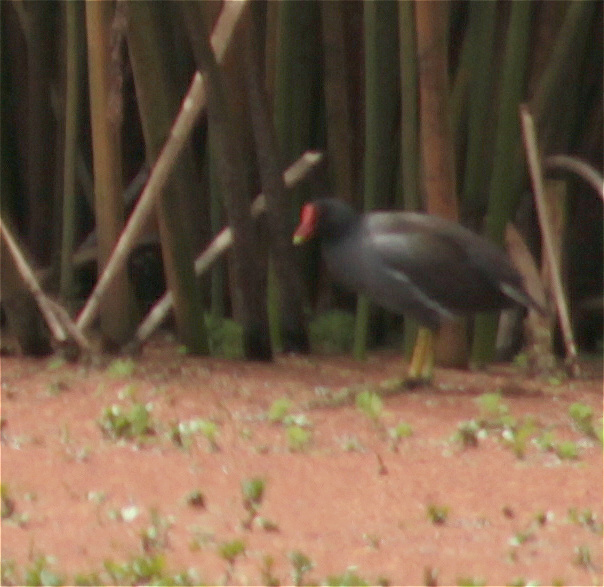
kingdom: Animalia
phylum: Chordata
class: Aves
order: Gruiformes
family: Rallidae
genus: Gallinula
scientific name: Gallinula chloropus
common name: Common moorhen
